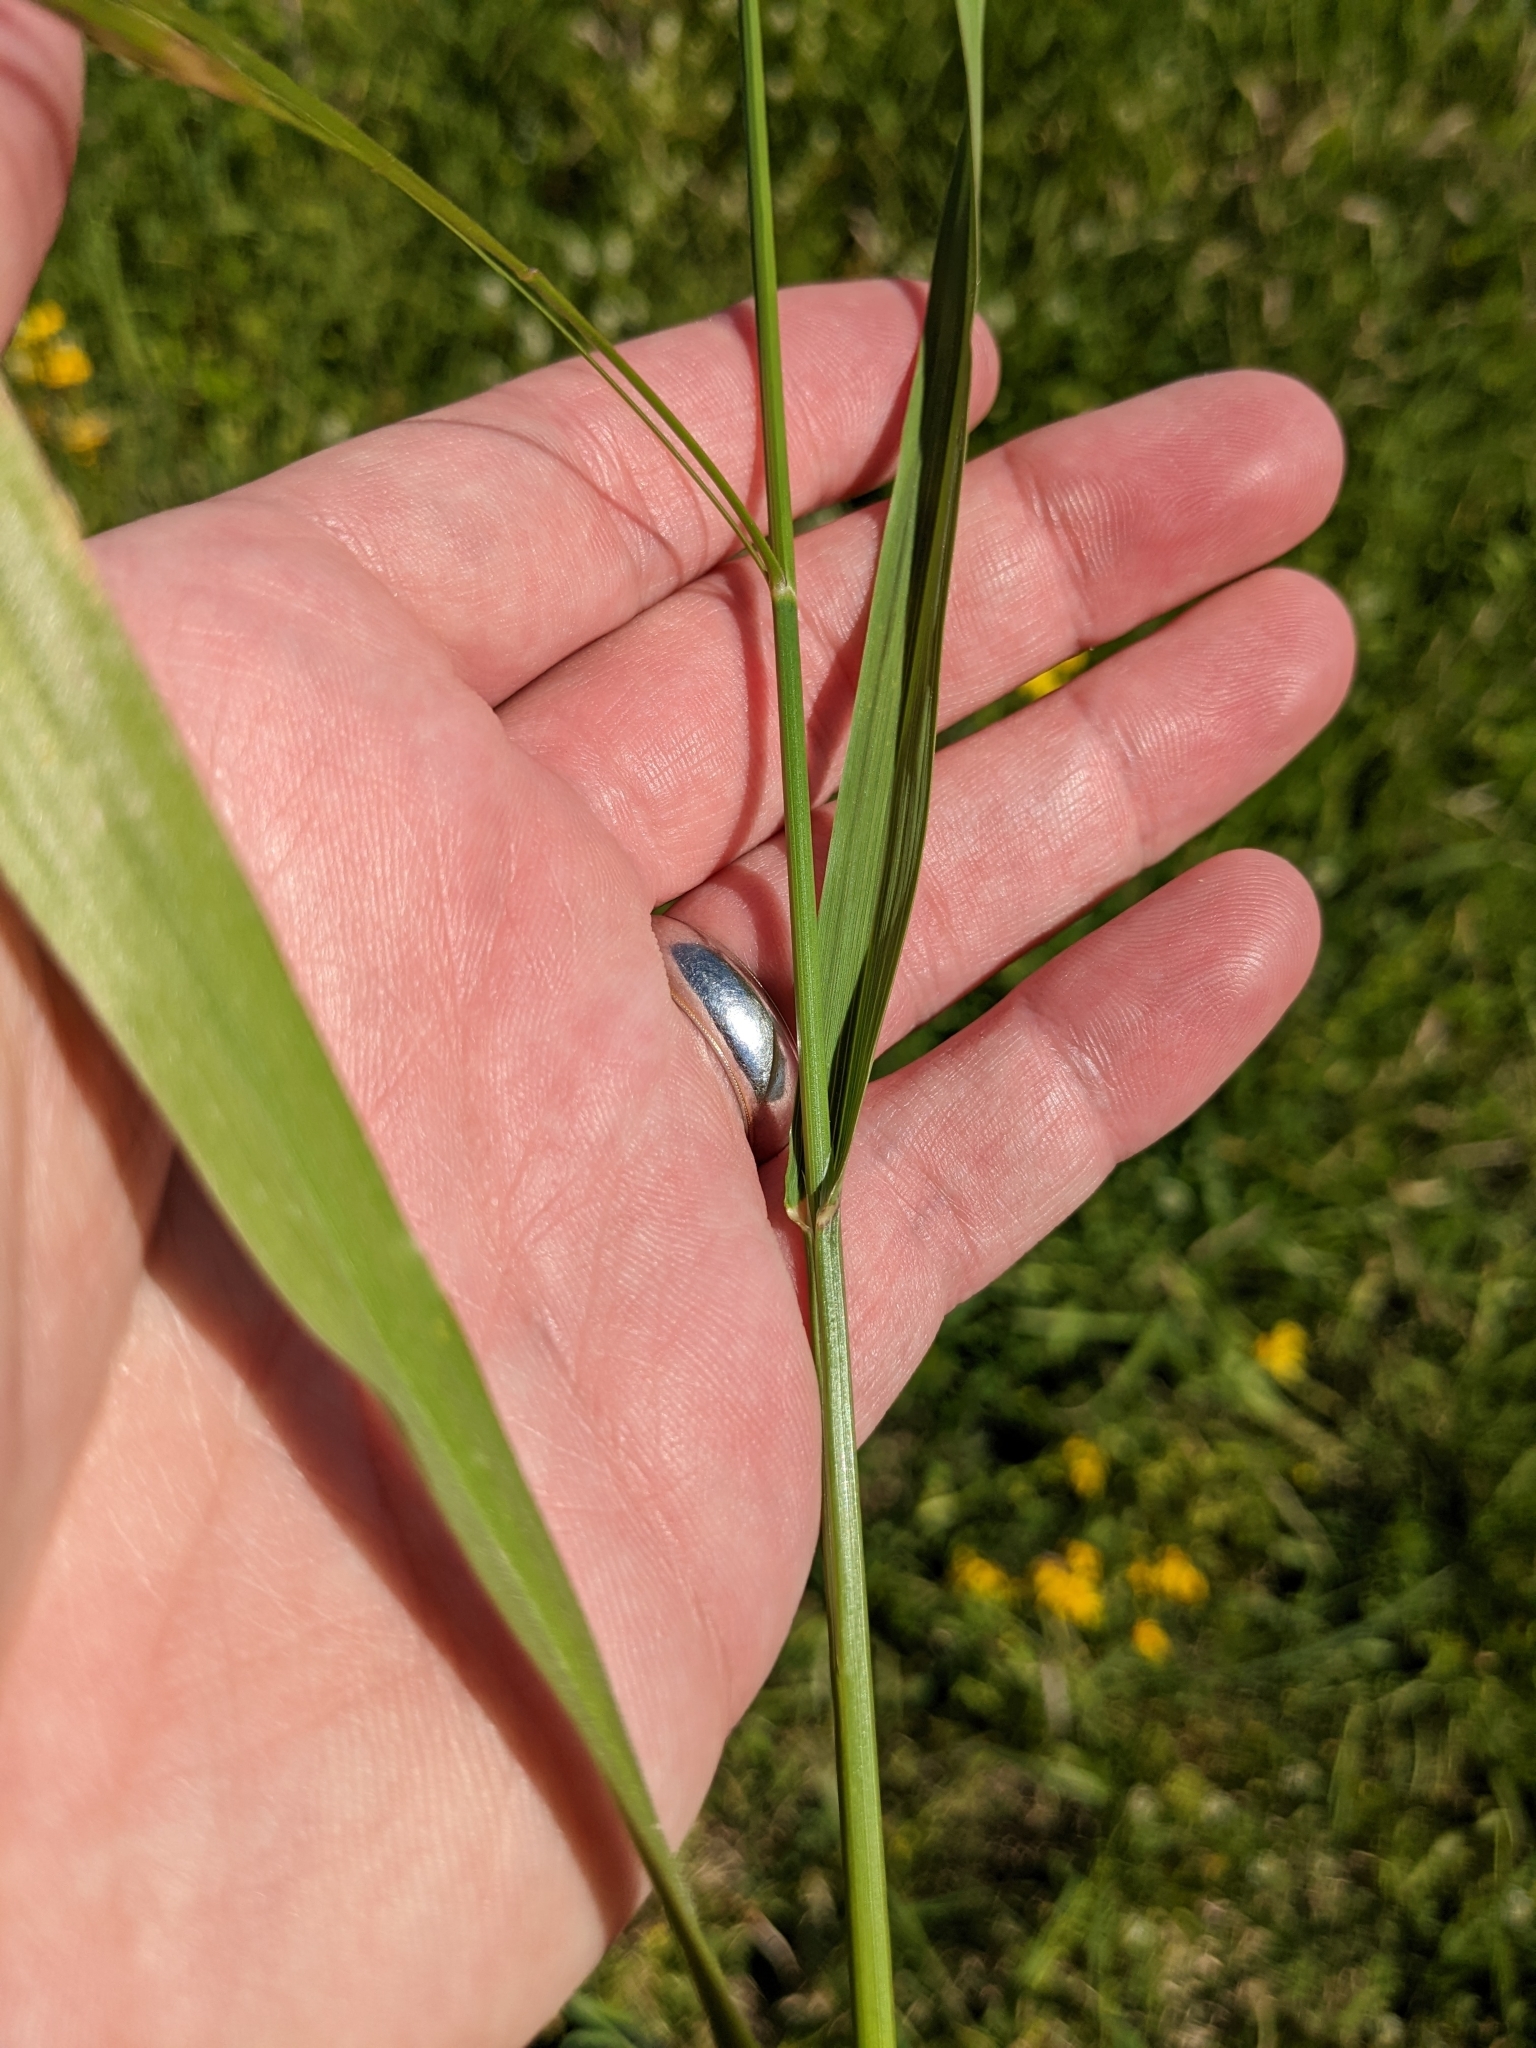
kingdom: Plantae
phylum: Tracheophyta
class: Liliopsida
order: Poales
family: Poaceae
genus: Bromus
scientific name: Bromus catharticus
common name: Rescuegrass
